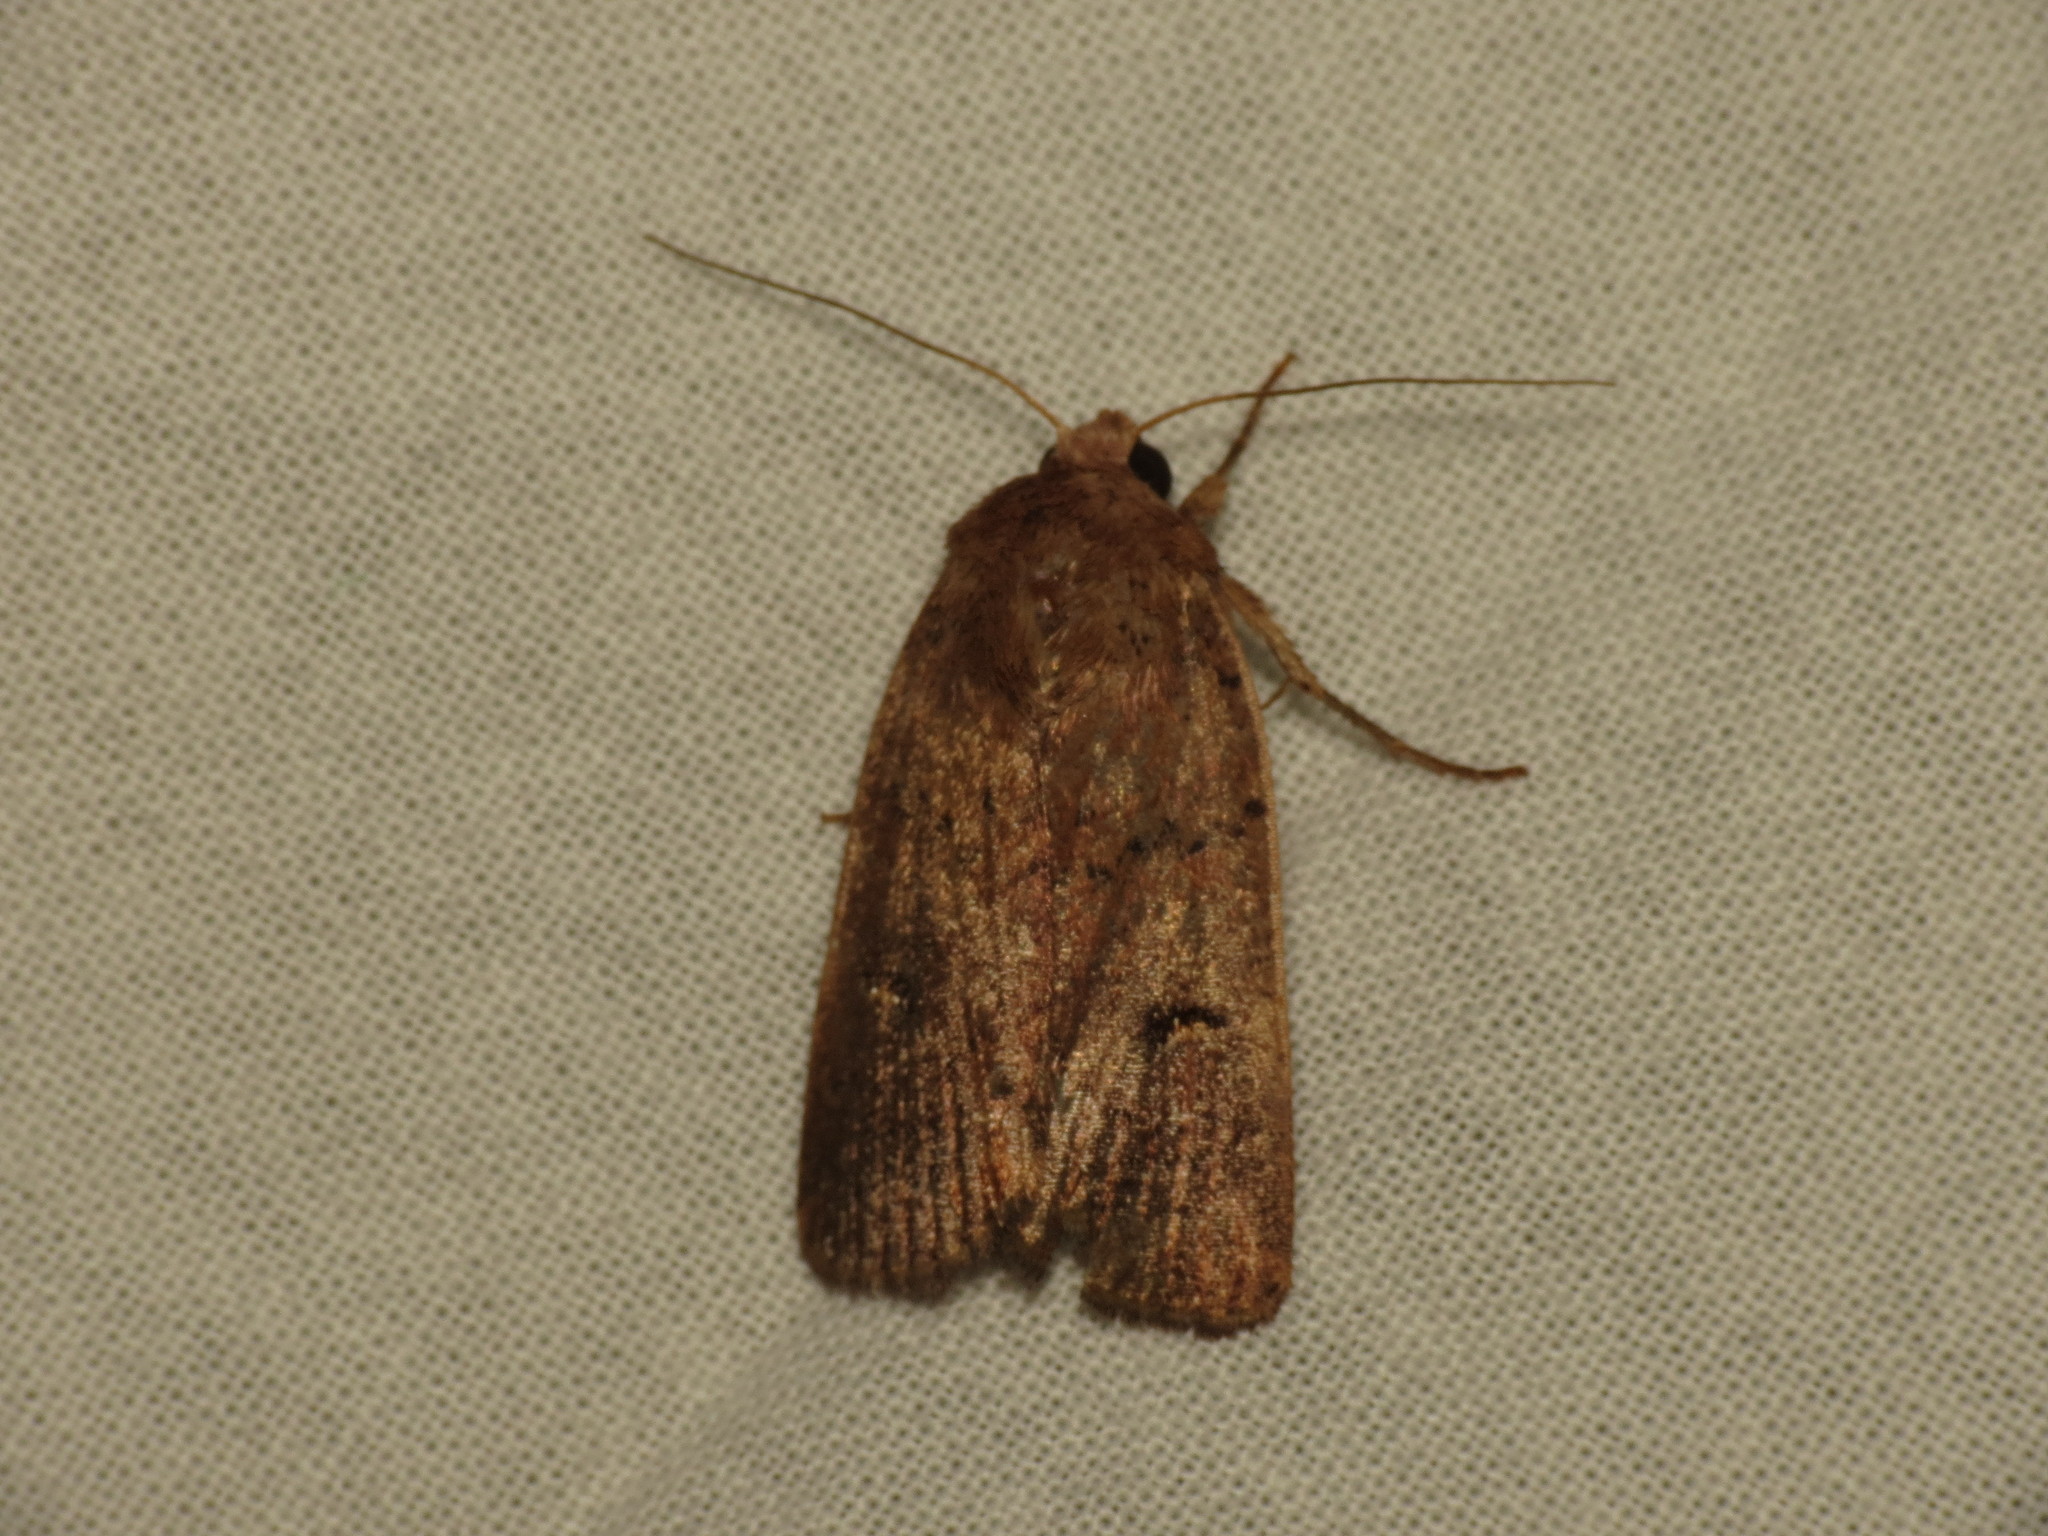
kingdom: Animalia
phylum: Arthropoda
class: Insecta
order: Lepidoptera
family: Noctuidae
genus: Proteuxoa
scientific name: Proteuxoa hypochalchis
